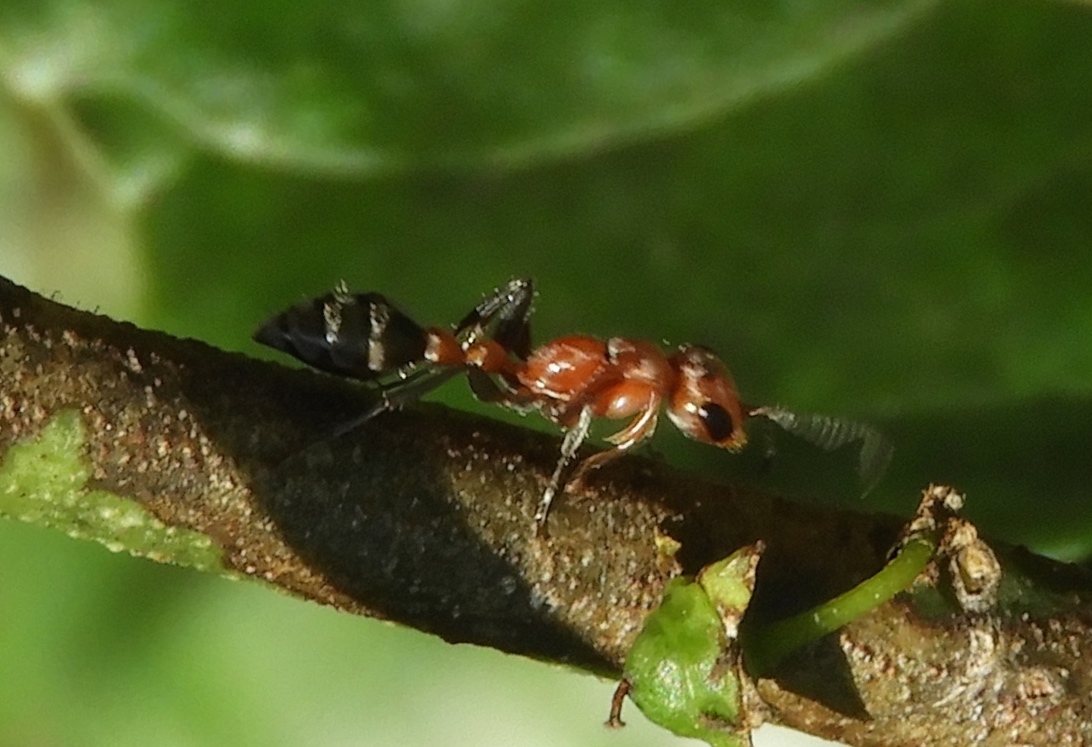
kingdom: Animalia
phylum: Arthropoda
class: Insecta
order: Hymenoptera
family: Formicidae
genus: Pseudomyrmex
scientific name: Pseudomyrmex
